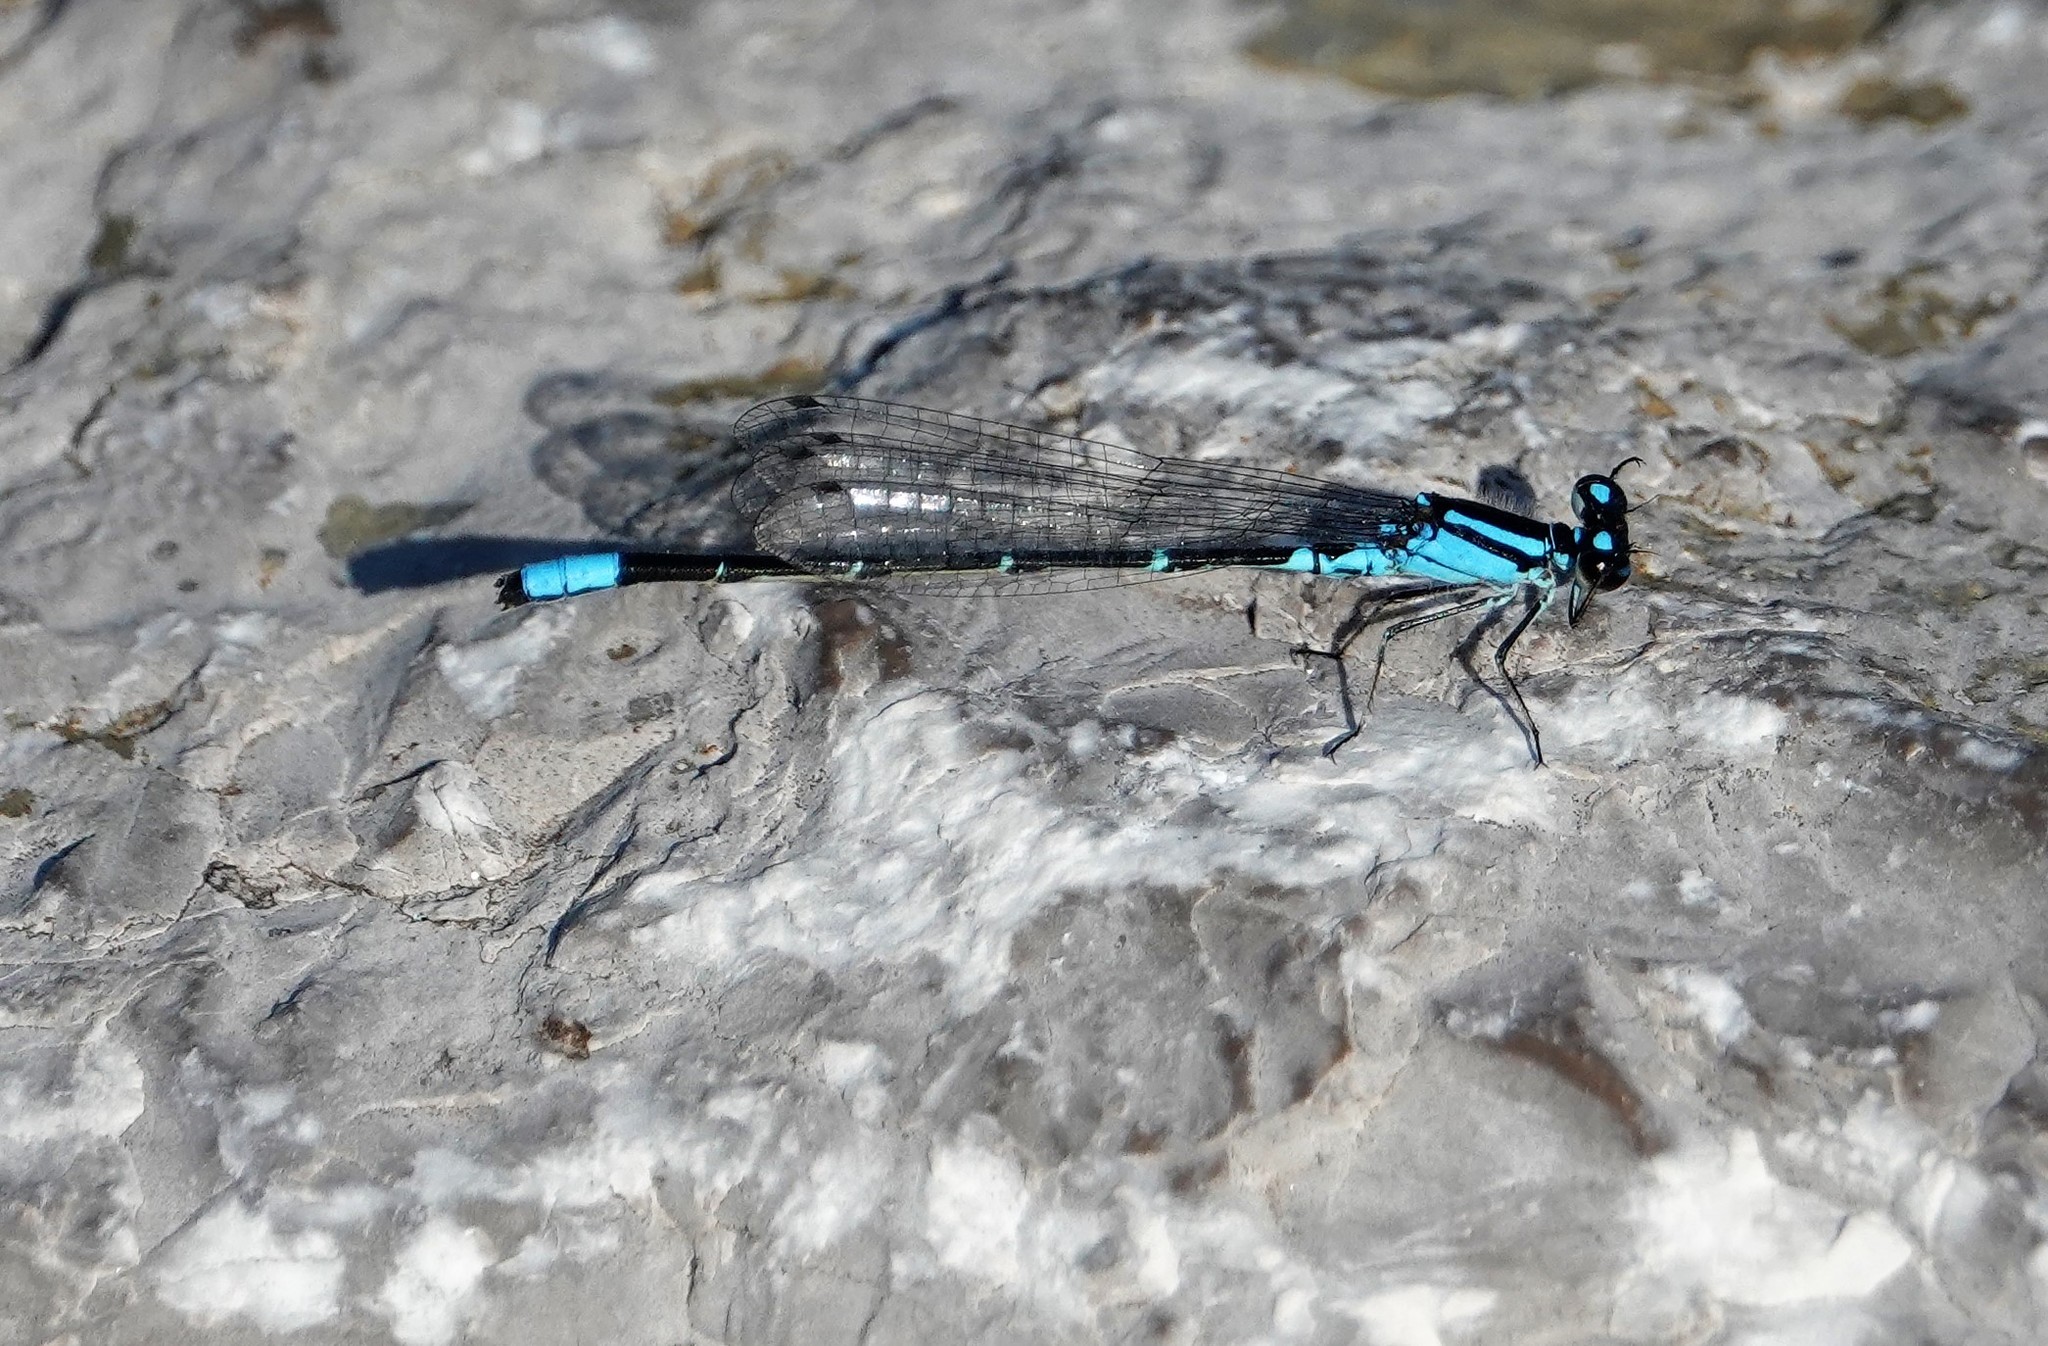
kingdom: Animalia
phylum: Arthropoda
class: Insecta
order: Odonata
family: Coenagrionidae
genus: Enallagma
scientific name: Enallagma geminatum
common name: Skimming bluet
